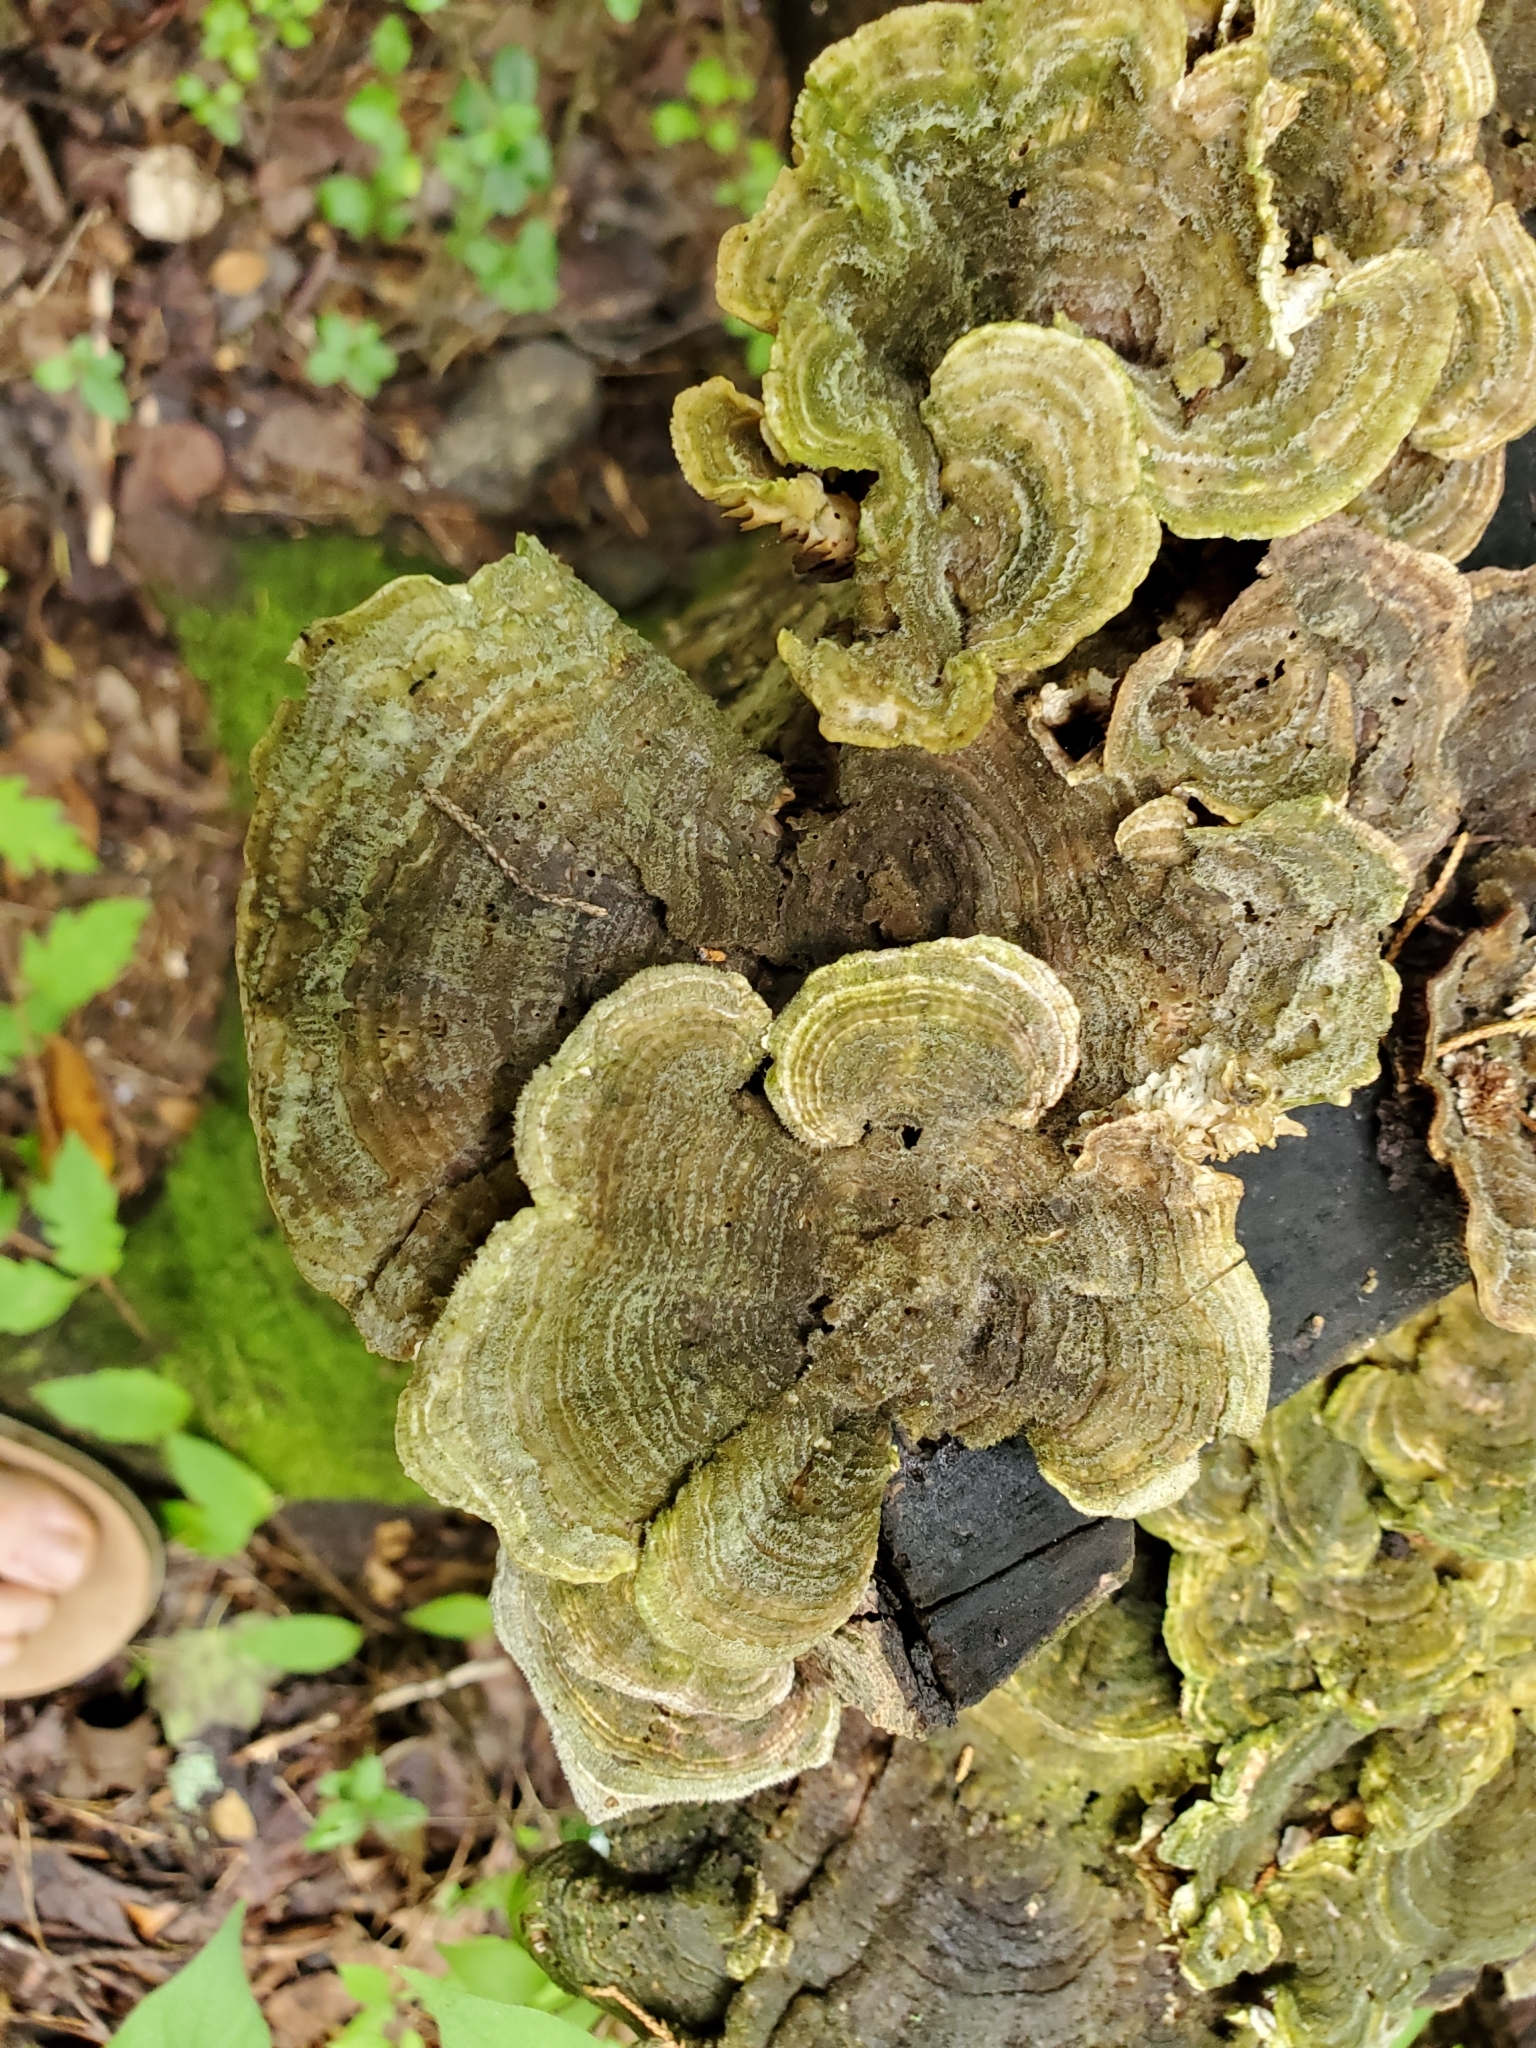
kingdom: Fungi
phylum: Basidiomycota
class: Agaricomycetes
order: Polyporales
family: Polyporaceae
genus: Lenzites
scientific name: Lenzites betulinus
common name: Birch mazegill
